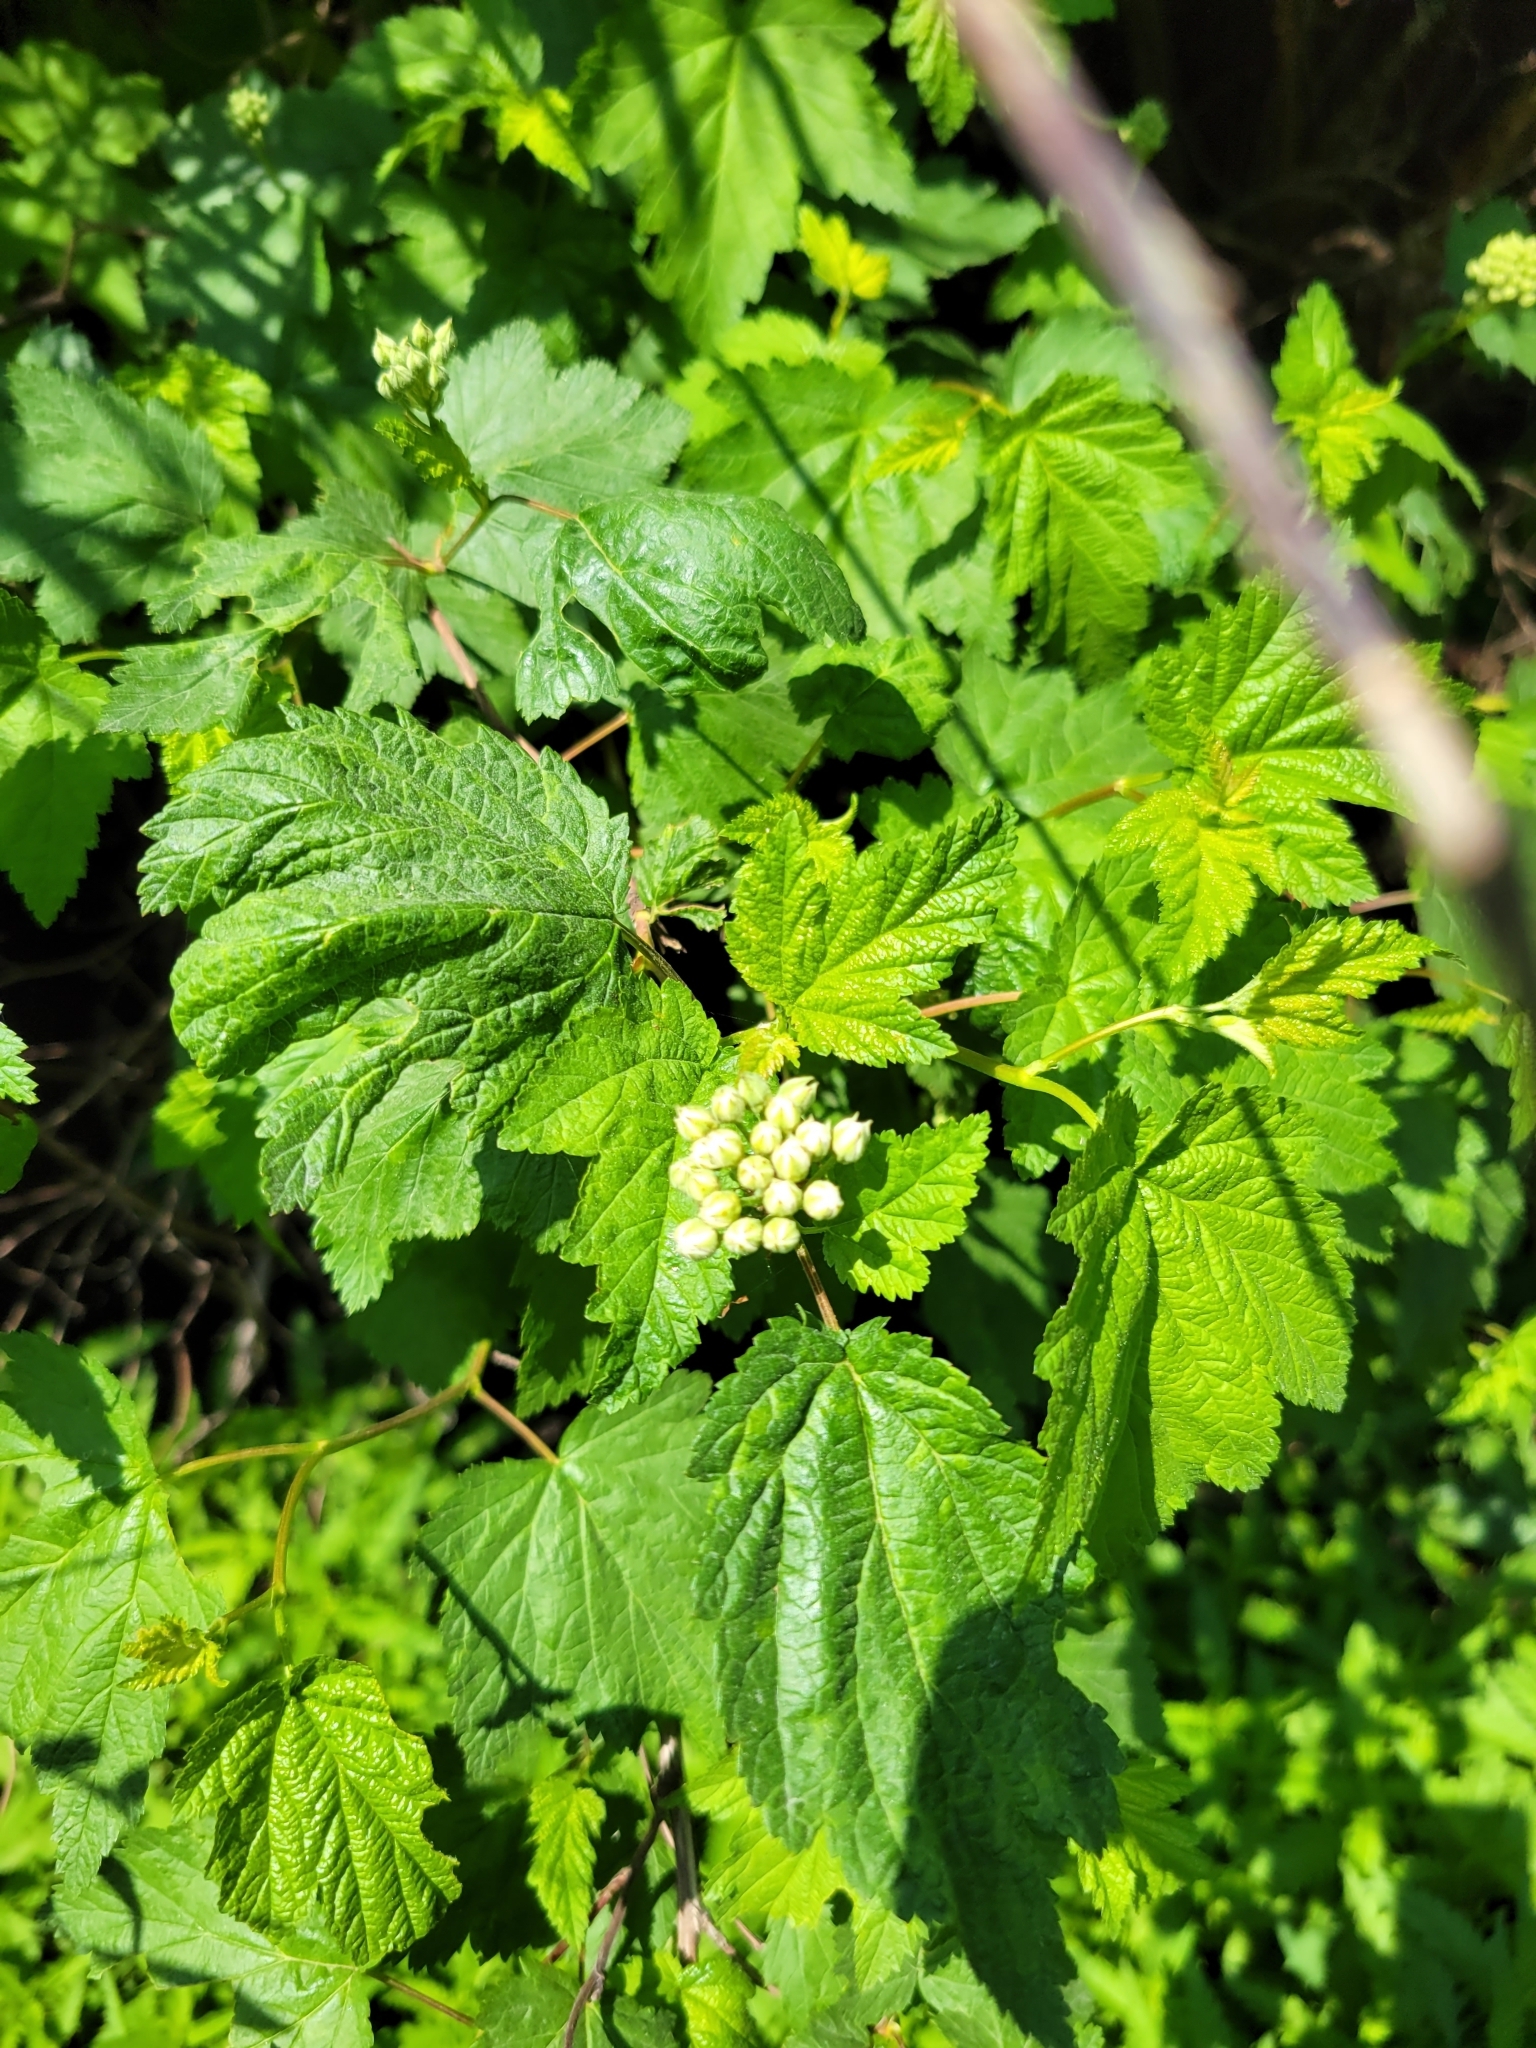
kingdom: Plantae
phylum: Tracheophyta
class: Magnoliopsida
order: Rosales
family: Rosaceae
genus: Physocarpus
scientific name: Physocarpus capitatus
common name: Pacific ninebark
